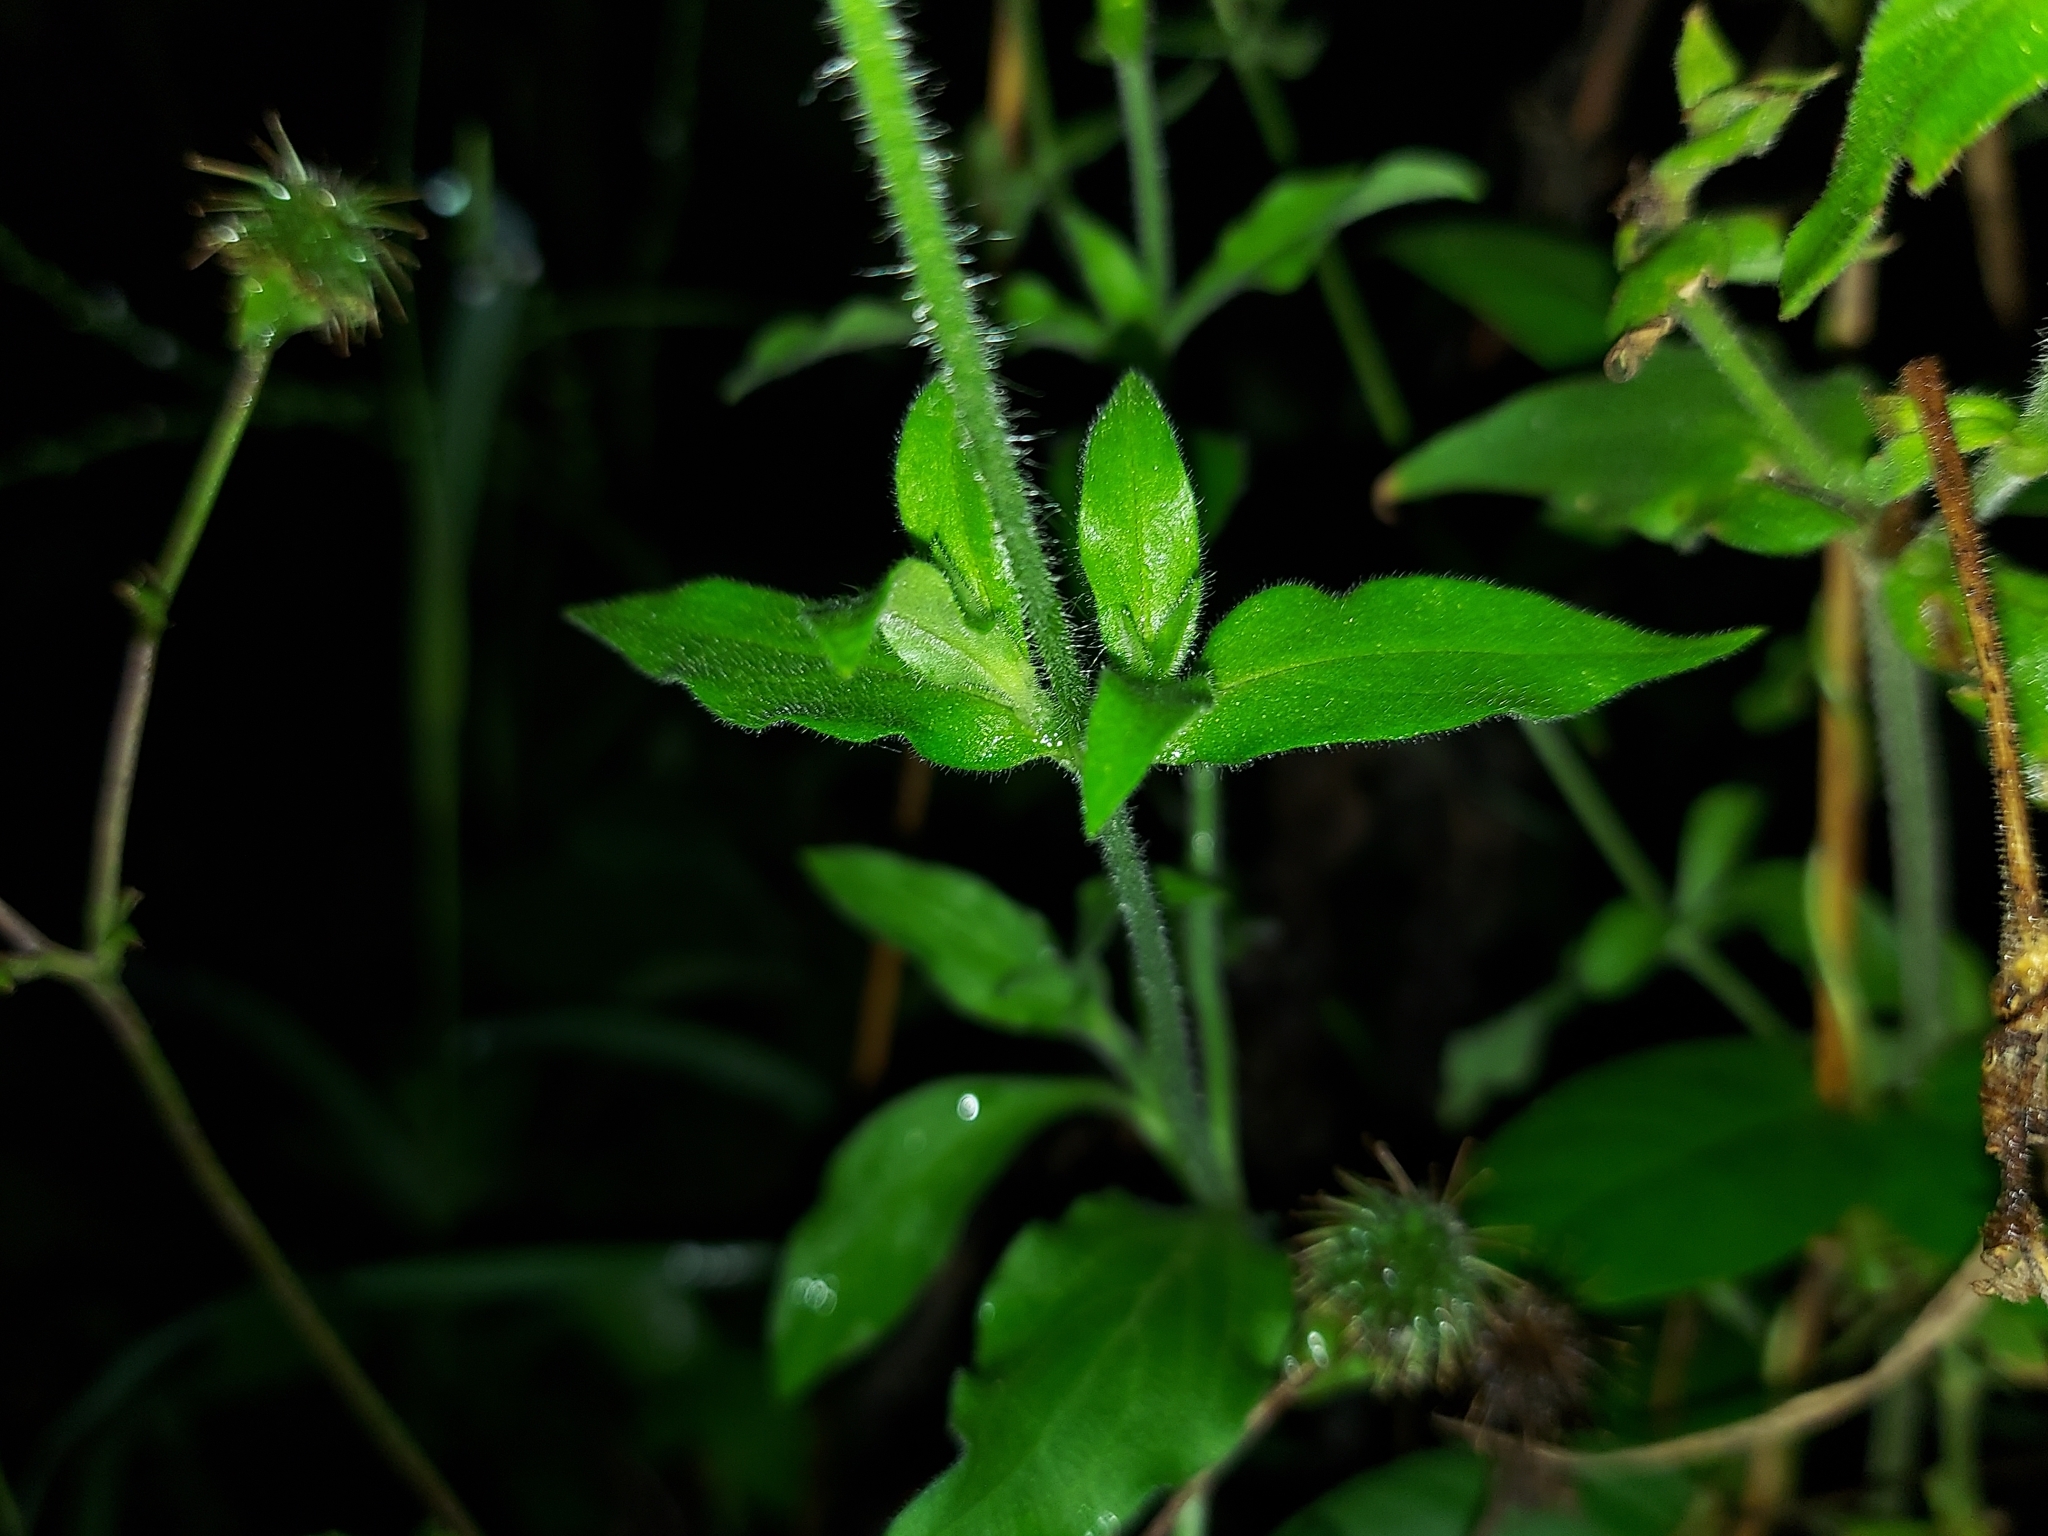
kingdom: Plantae
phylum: Tracheophyta
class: Magnoliopsida
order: Caryophyllales
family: Caryophyllaceae
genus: Silene
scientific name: Silene latifolia
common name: White campion
